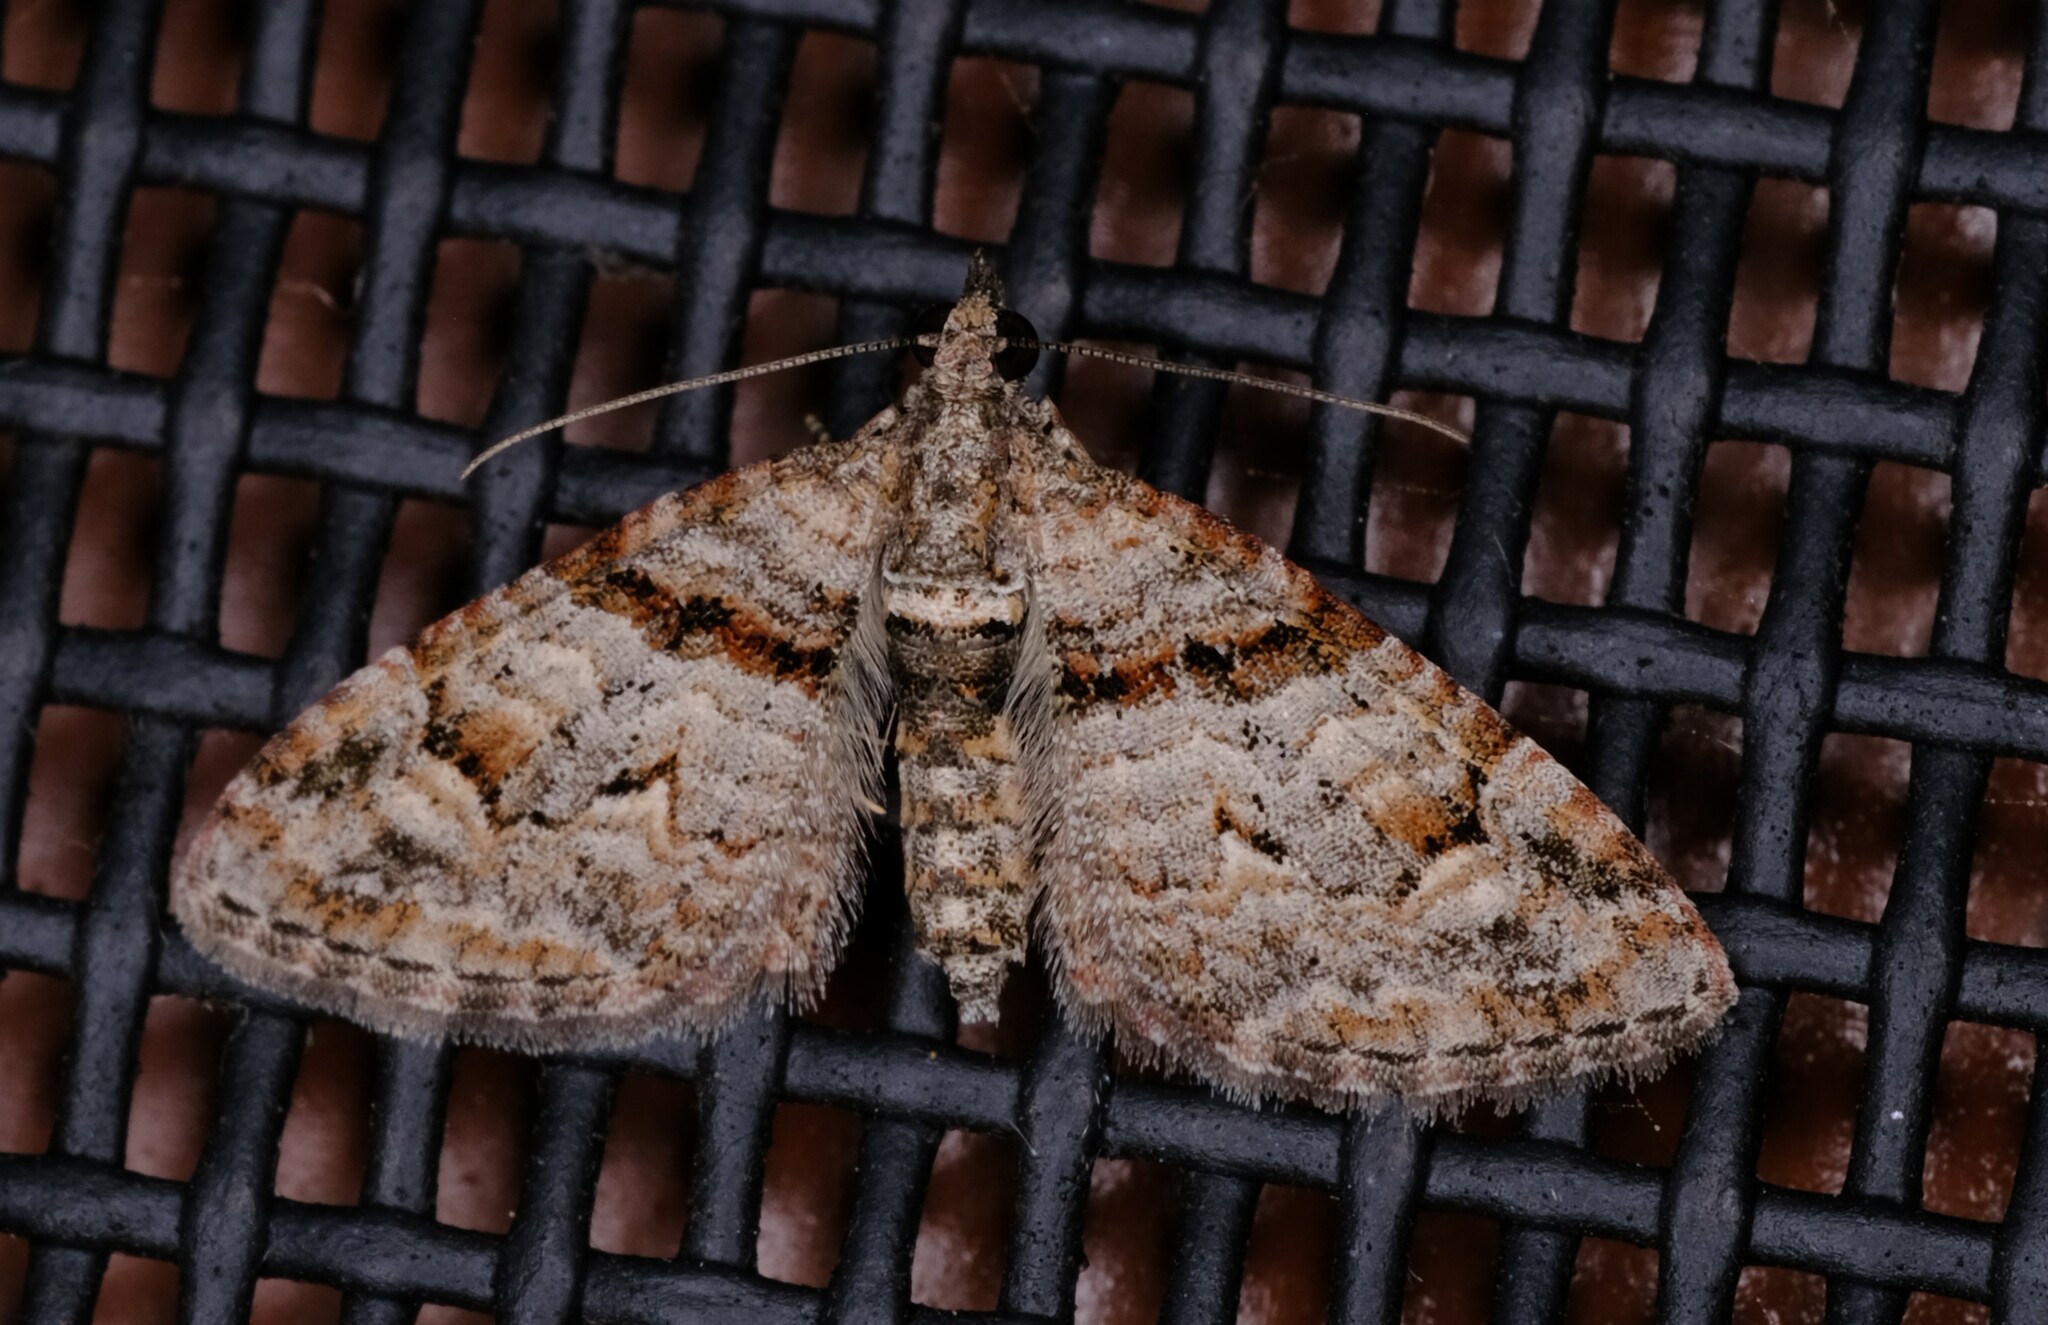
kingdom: Animalia
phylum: Arthropoda
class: Insecta
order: Lepidoptera
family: Geometridae
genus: Phrissogonus
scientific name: Phrissogonus laticostata
